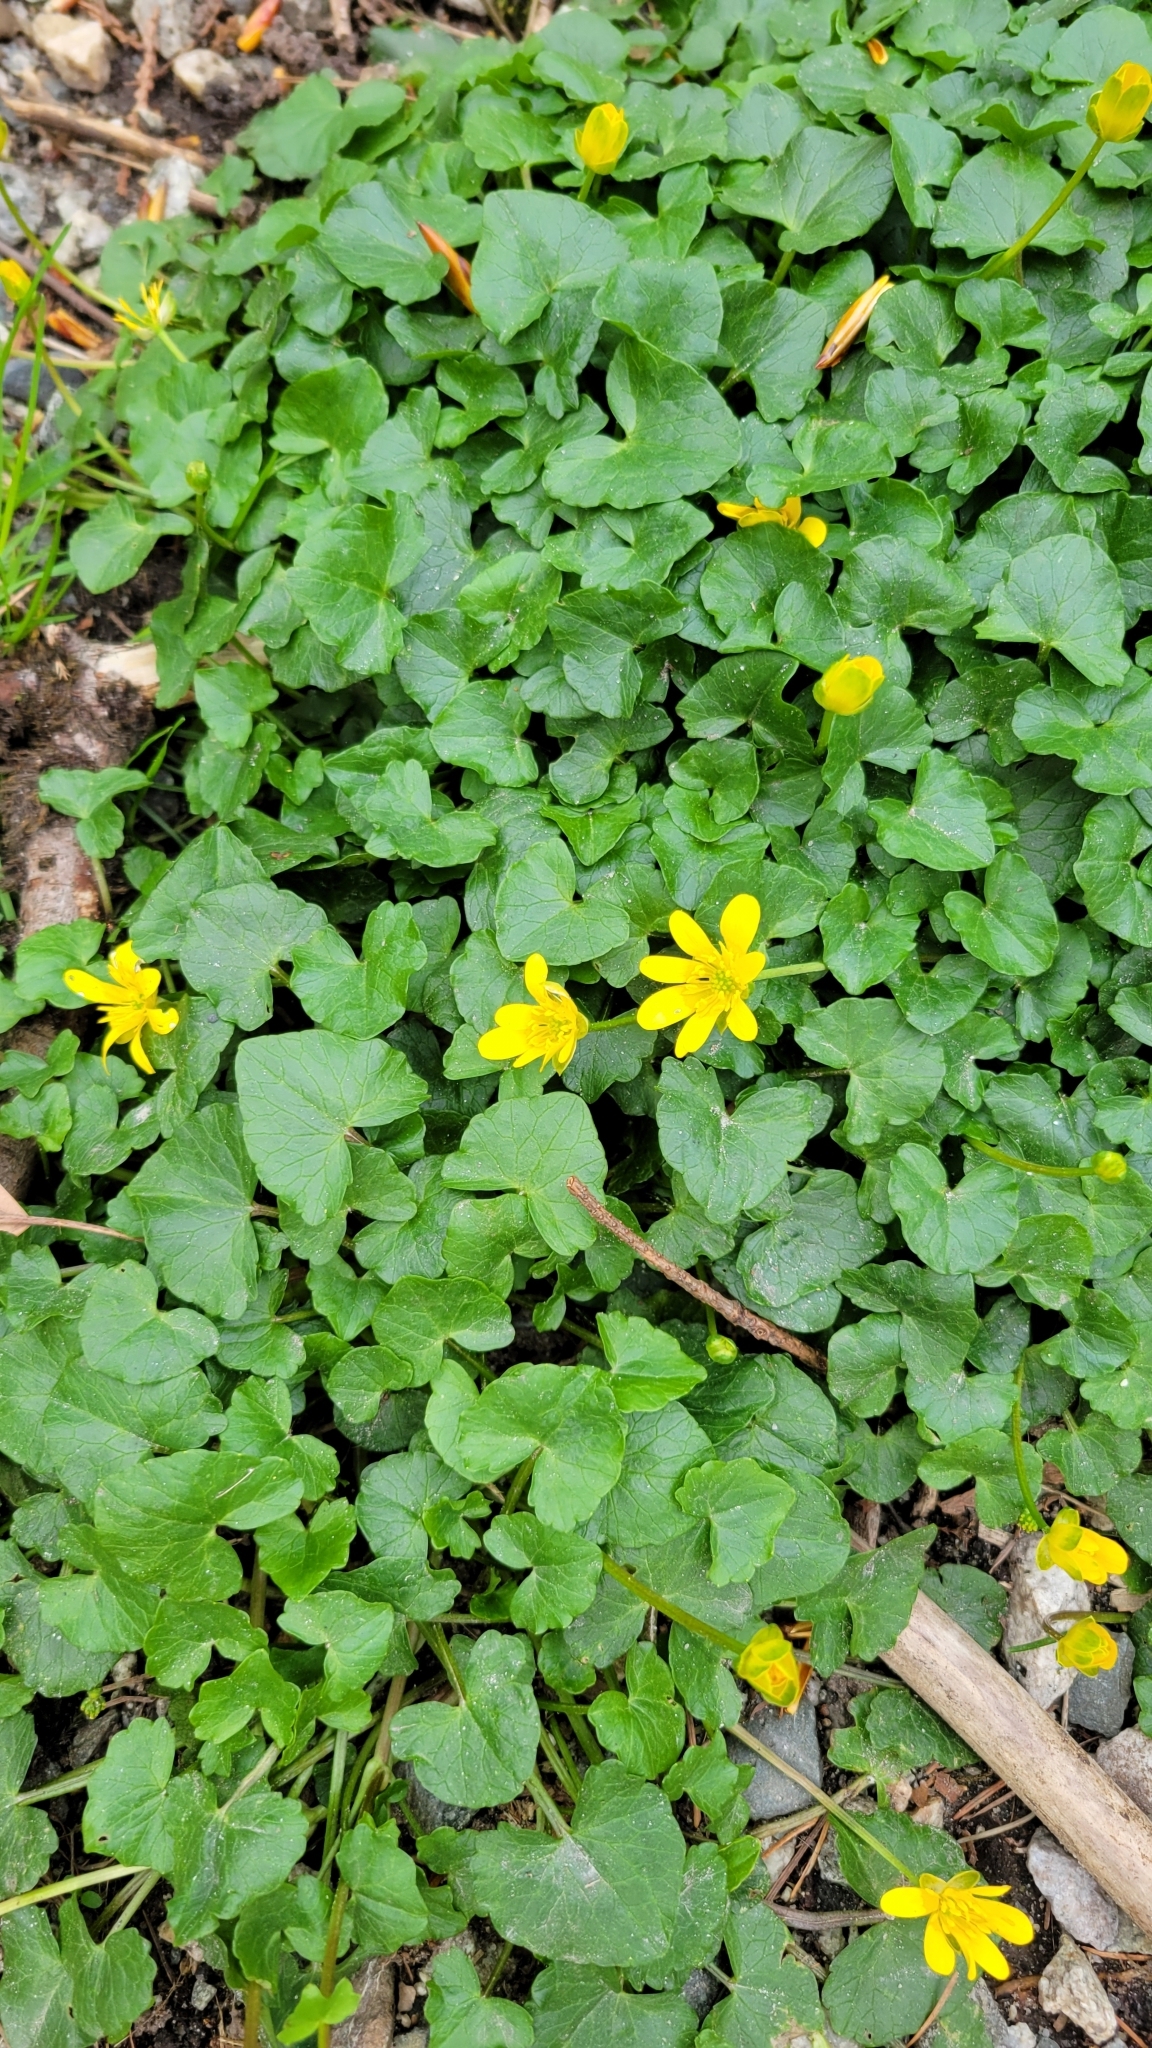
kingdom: Plantae
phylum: Tracheophyta
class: Magnoliopsida
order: Ranunculales
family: Ranunculaceae
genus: Ficaria
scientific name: Ficaria verna
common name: Lesser celandine
